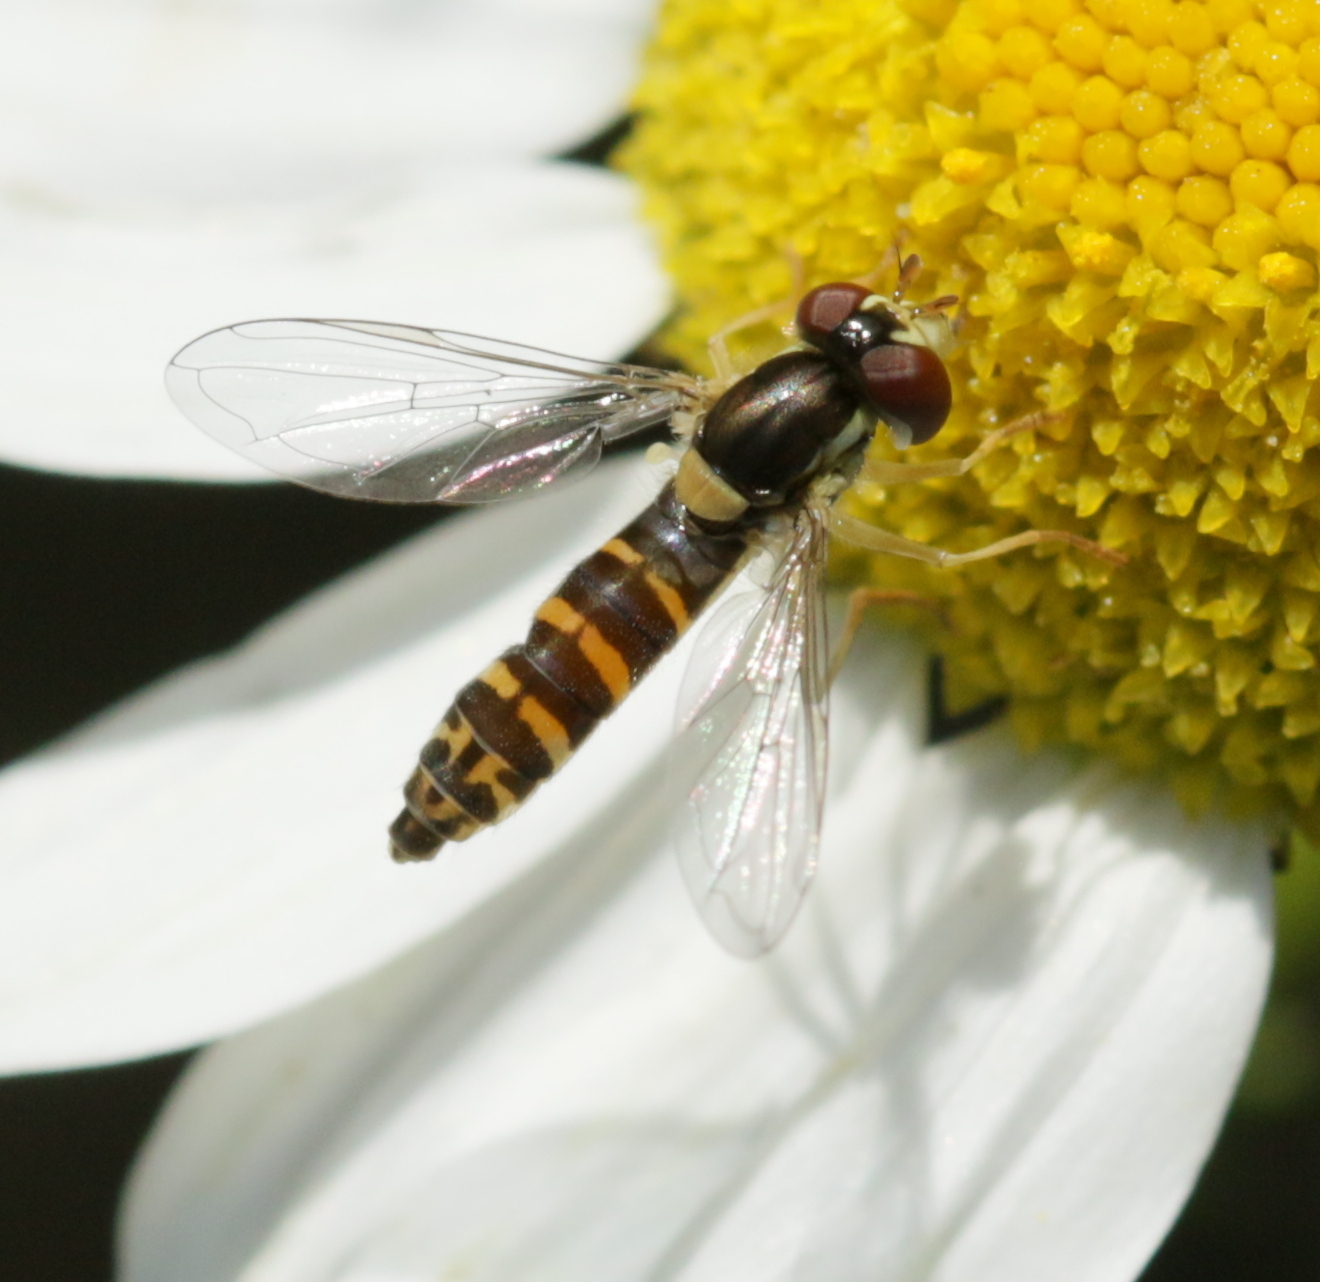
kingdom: Animalia
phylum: Arthropoda
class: Insecta
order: Diptera
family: Syrphidae
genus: Sphaerophoria
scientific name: Sphaerophoria
